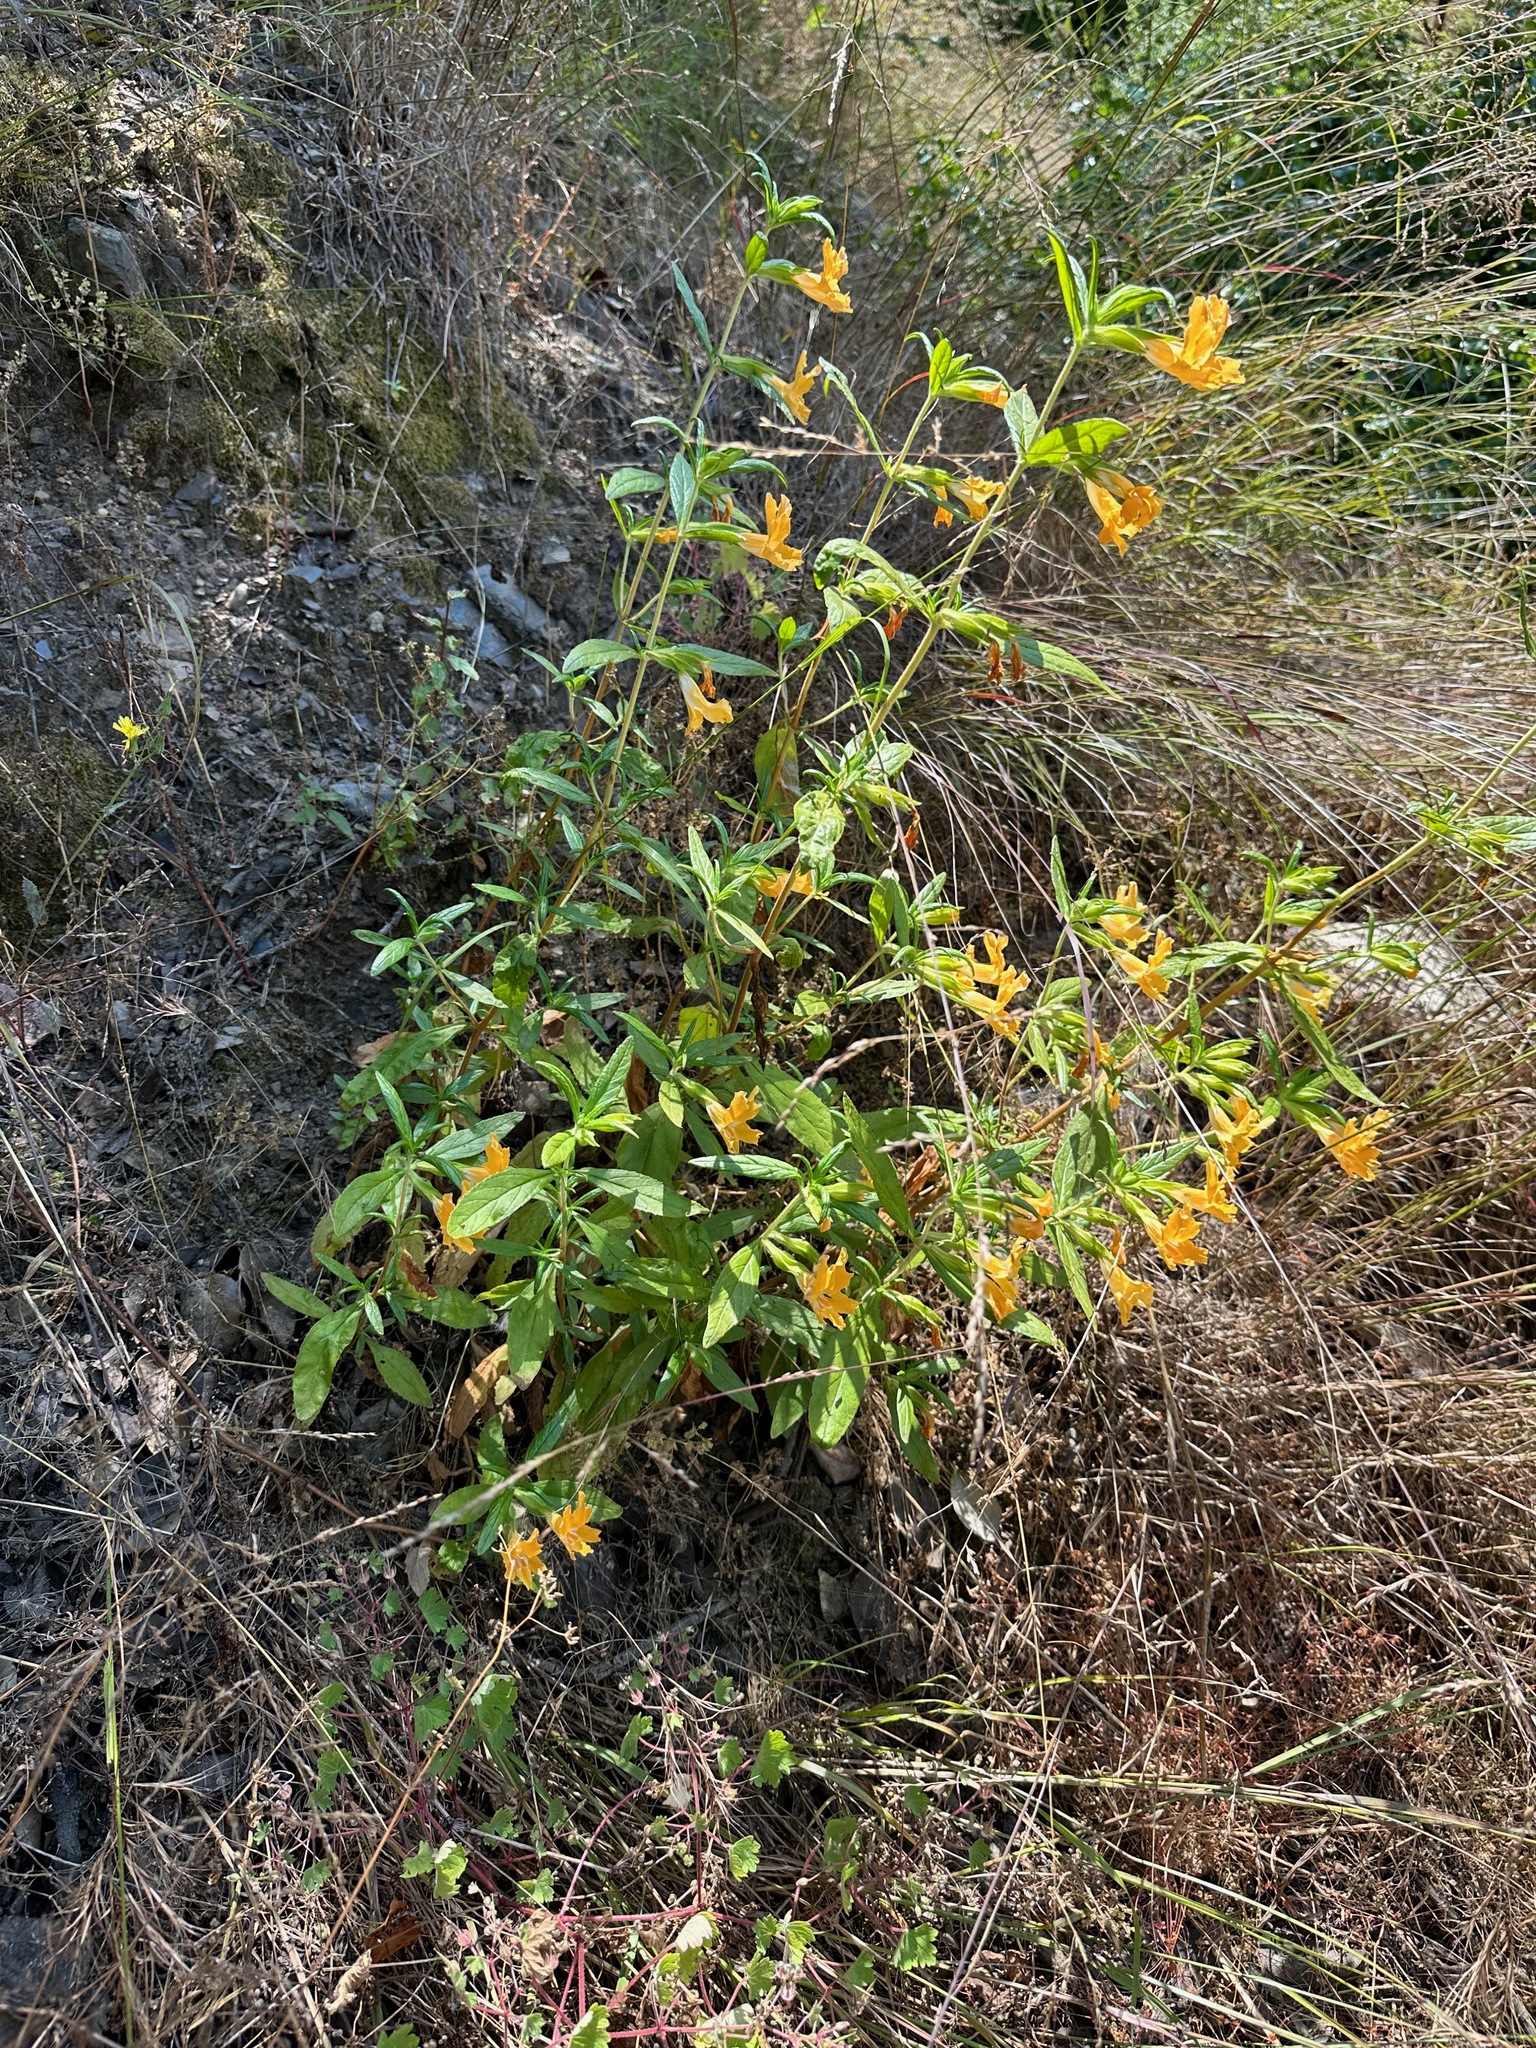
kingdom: Plantae
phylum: Tracheophyta
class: Magnoliopsida
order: Lamiales
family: Phrymaceae
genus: Diplacus
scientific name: Diplacus longiflorus
